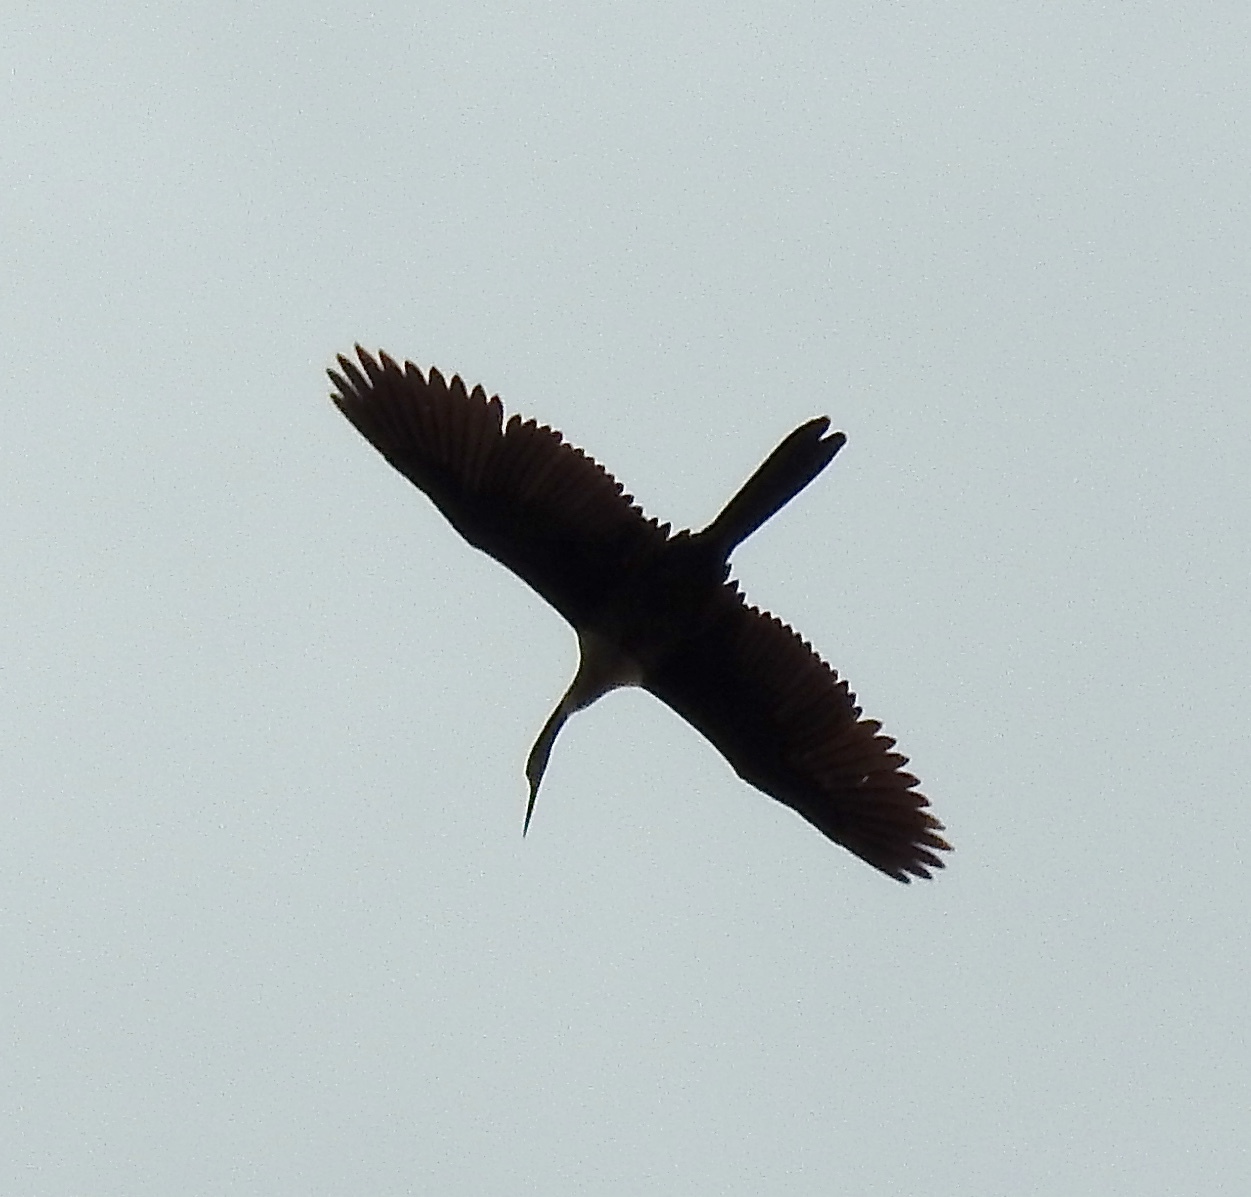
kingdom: Animalia
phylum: Chordata
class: Aves
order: Suliformes
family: Anhingidae
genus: Anhinga
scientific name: Anhinga anhinga
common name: Anhinga
